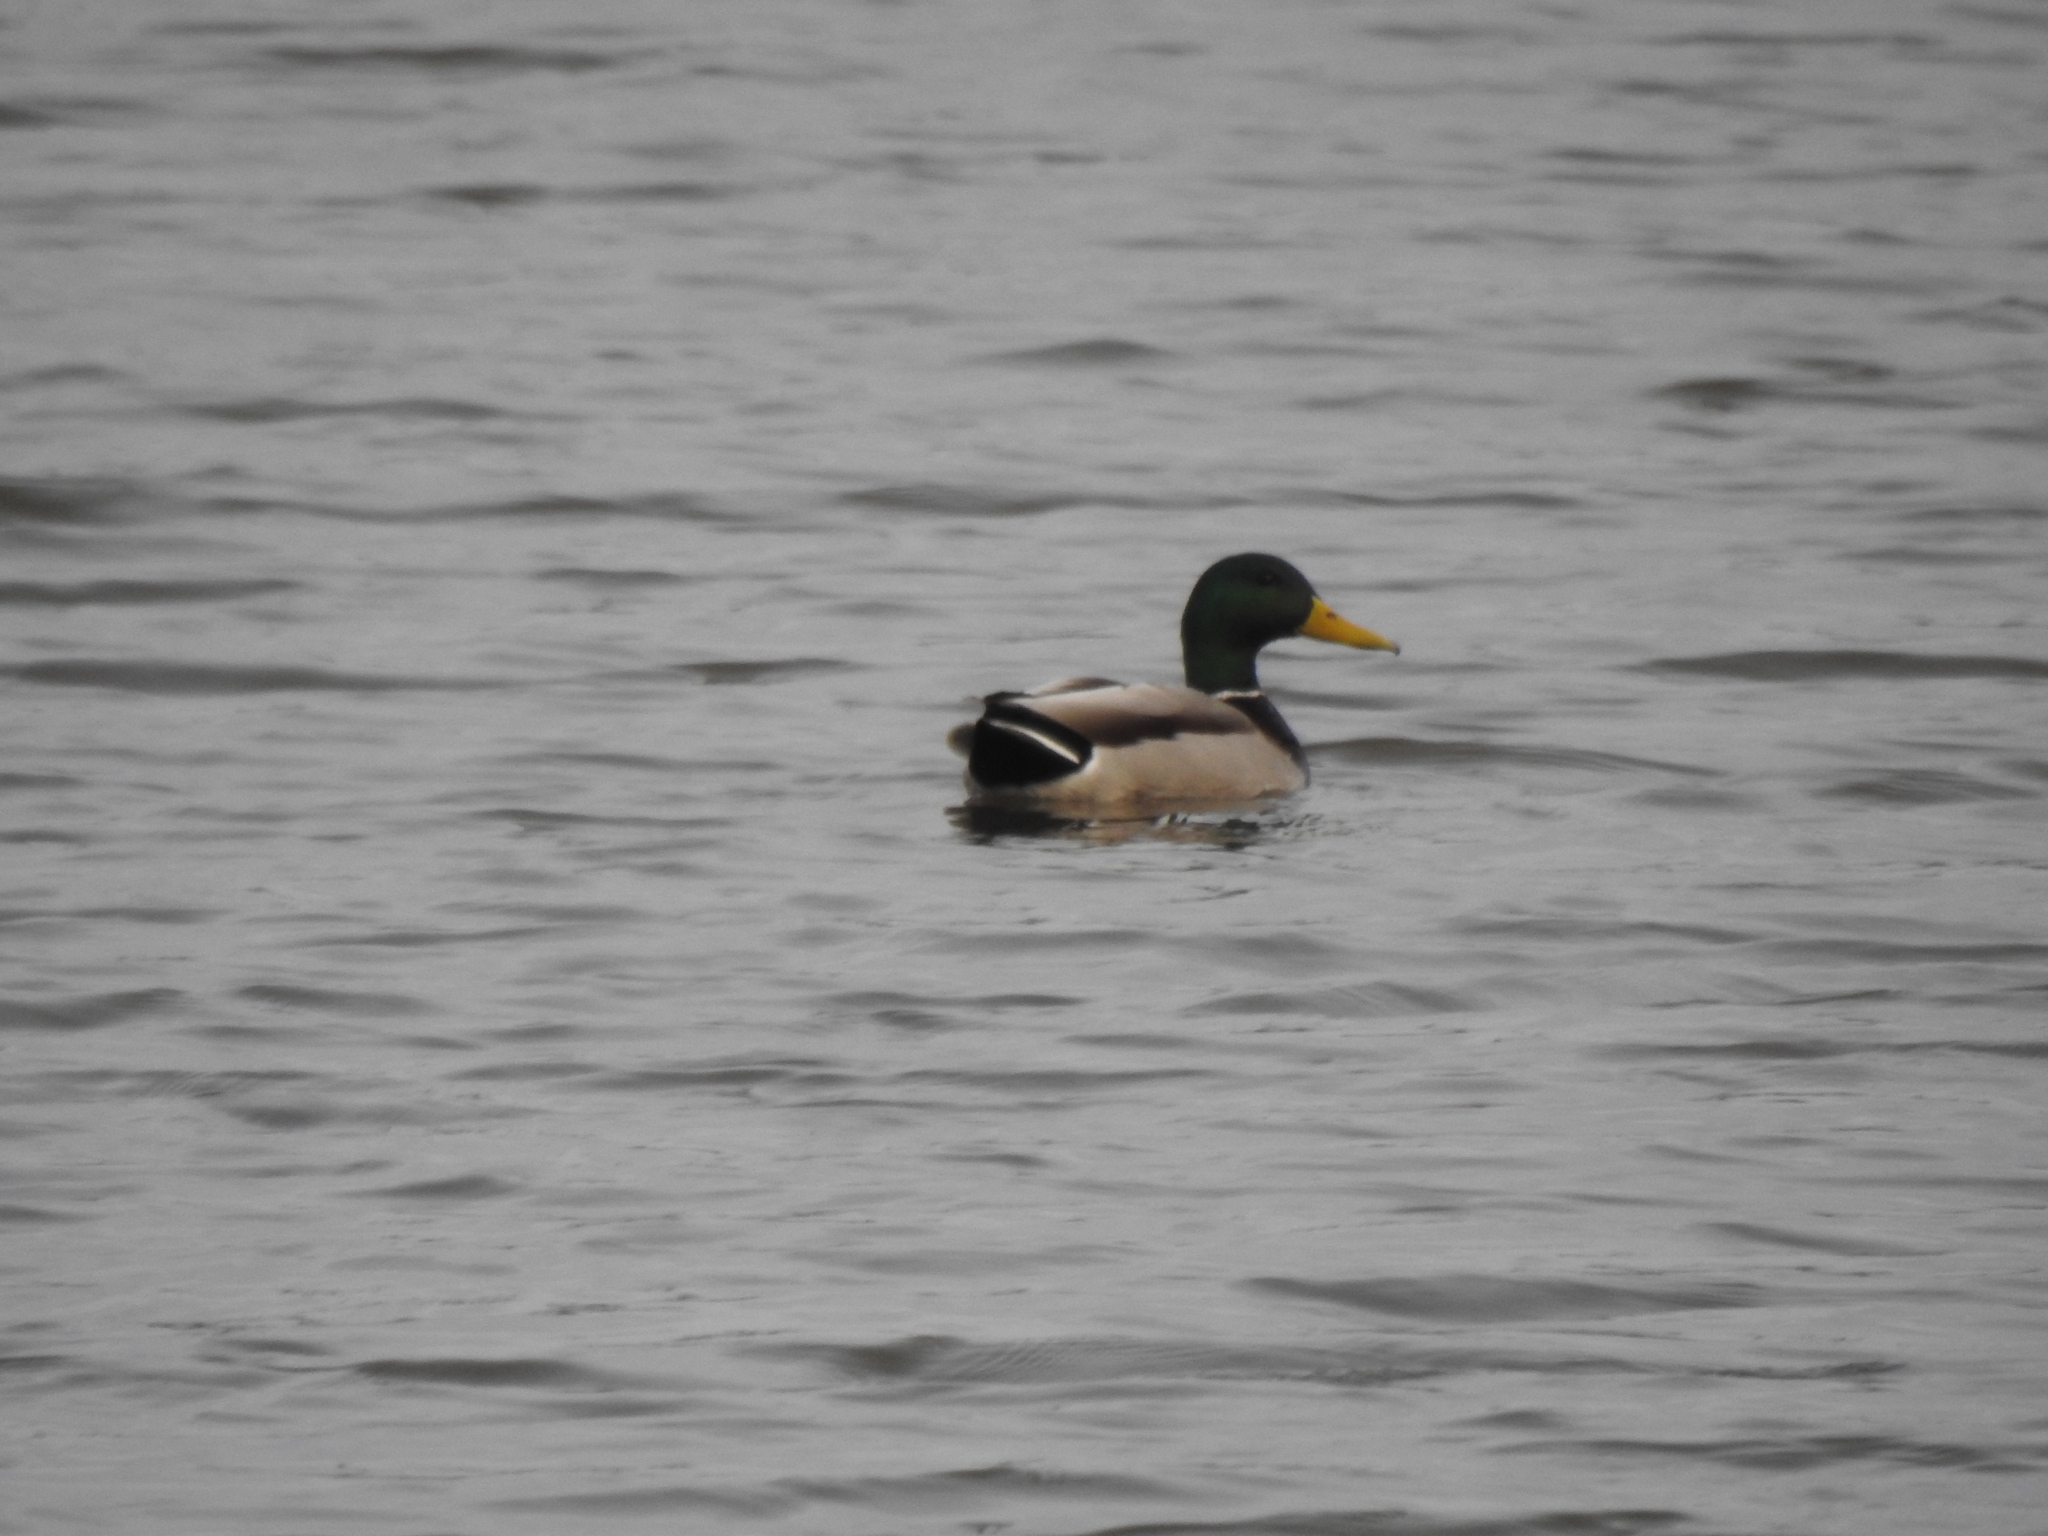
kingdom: Animalia
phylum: Chordata
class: Aves
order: Anseriformes
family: Anatidae
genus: Anas
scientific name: Anas platyrhynchos
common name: Mallard
